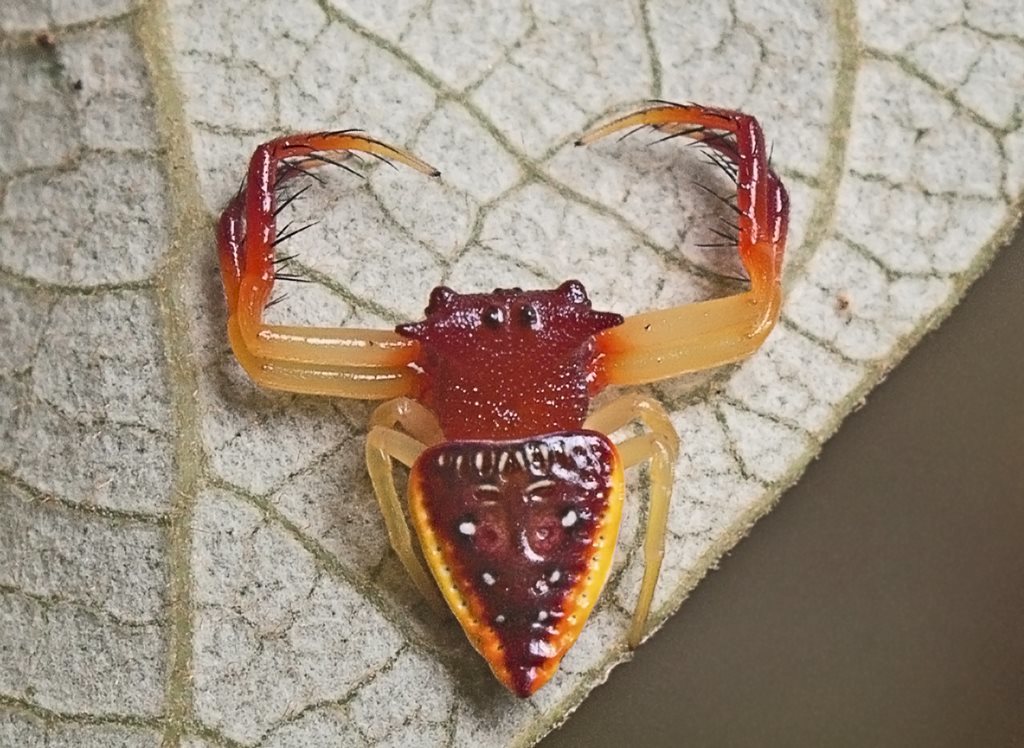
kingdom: Animalia
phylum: Arthropoda
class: Arachnida
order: Araneae
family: Arkyidae
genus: Arkys
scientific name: Arkys cornutus
